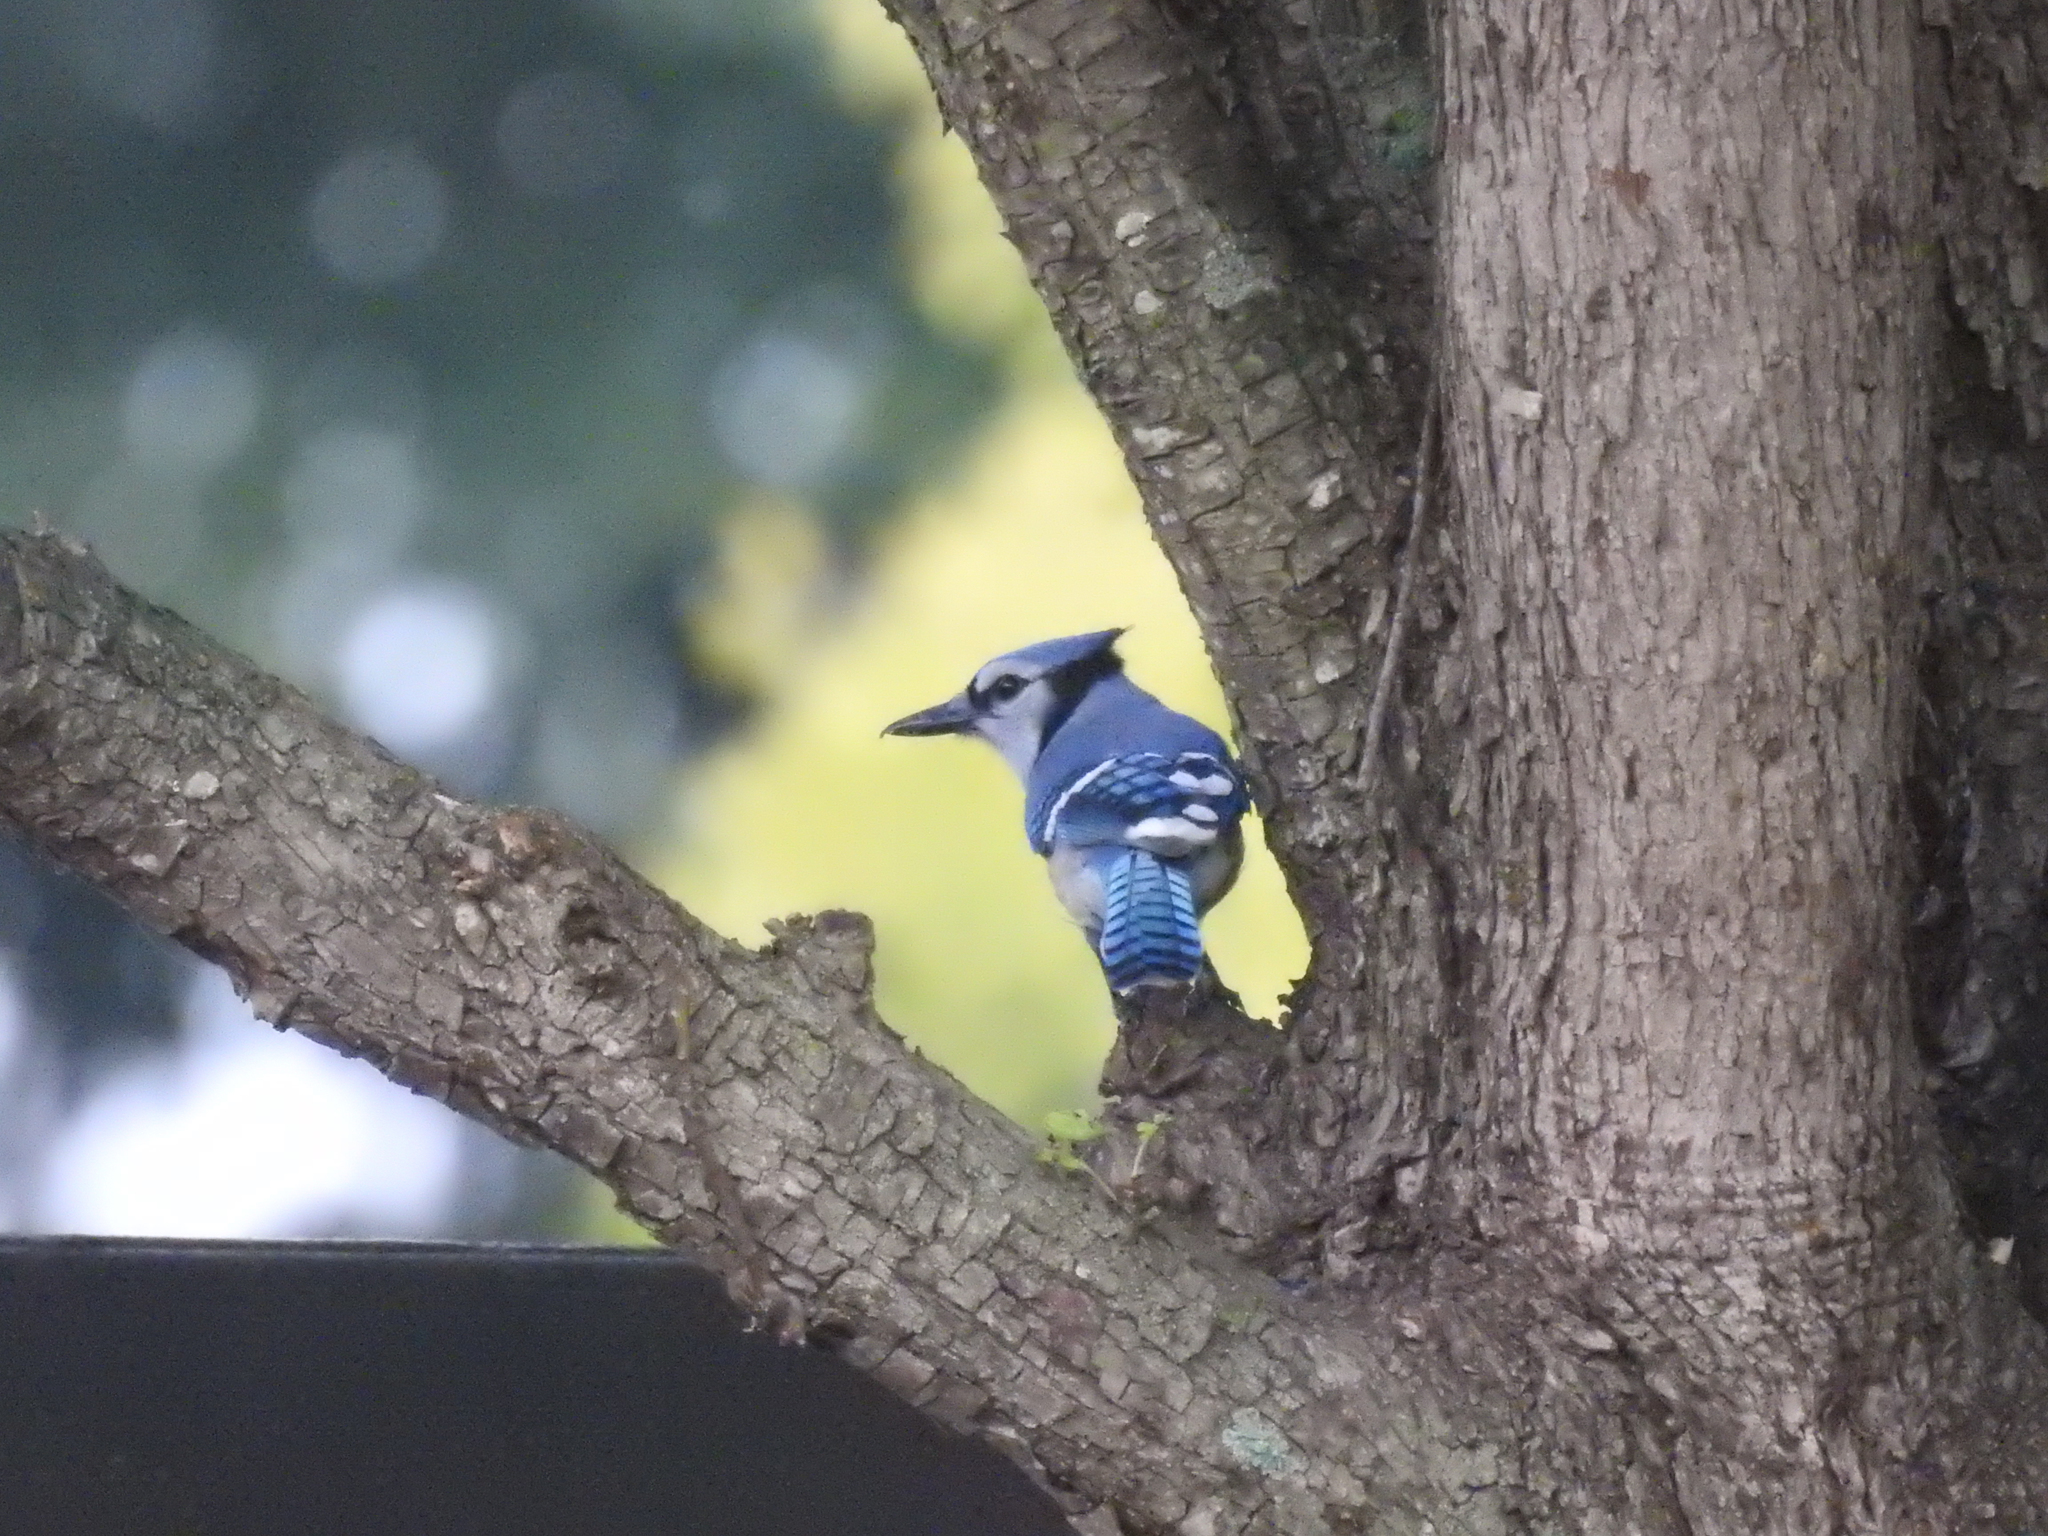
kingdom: Animalia
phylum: Chordata
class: Aves
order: Passeriformes
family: Corvidae
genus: Cyanocitta
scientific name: Cyanocitta cristata
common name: Blue jay
